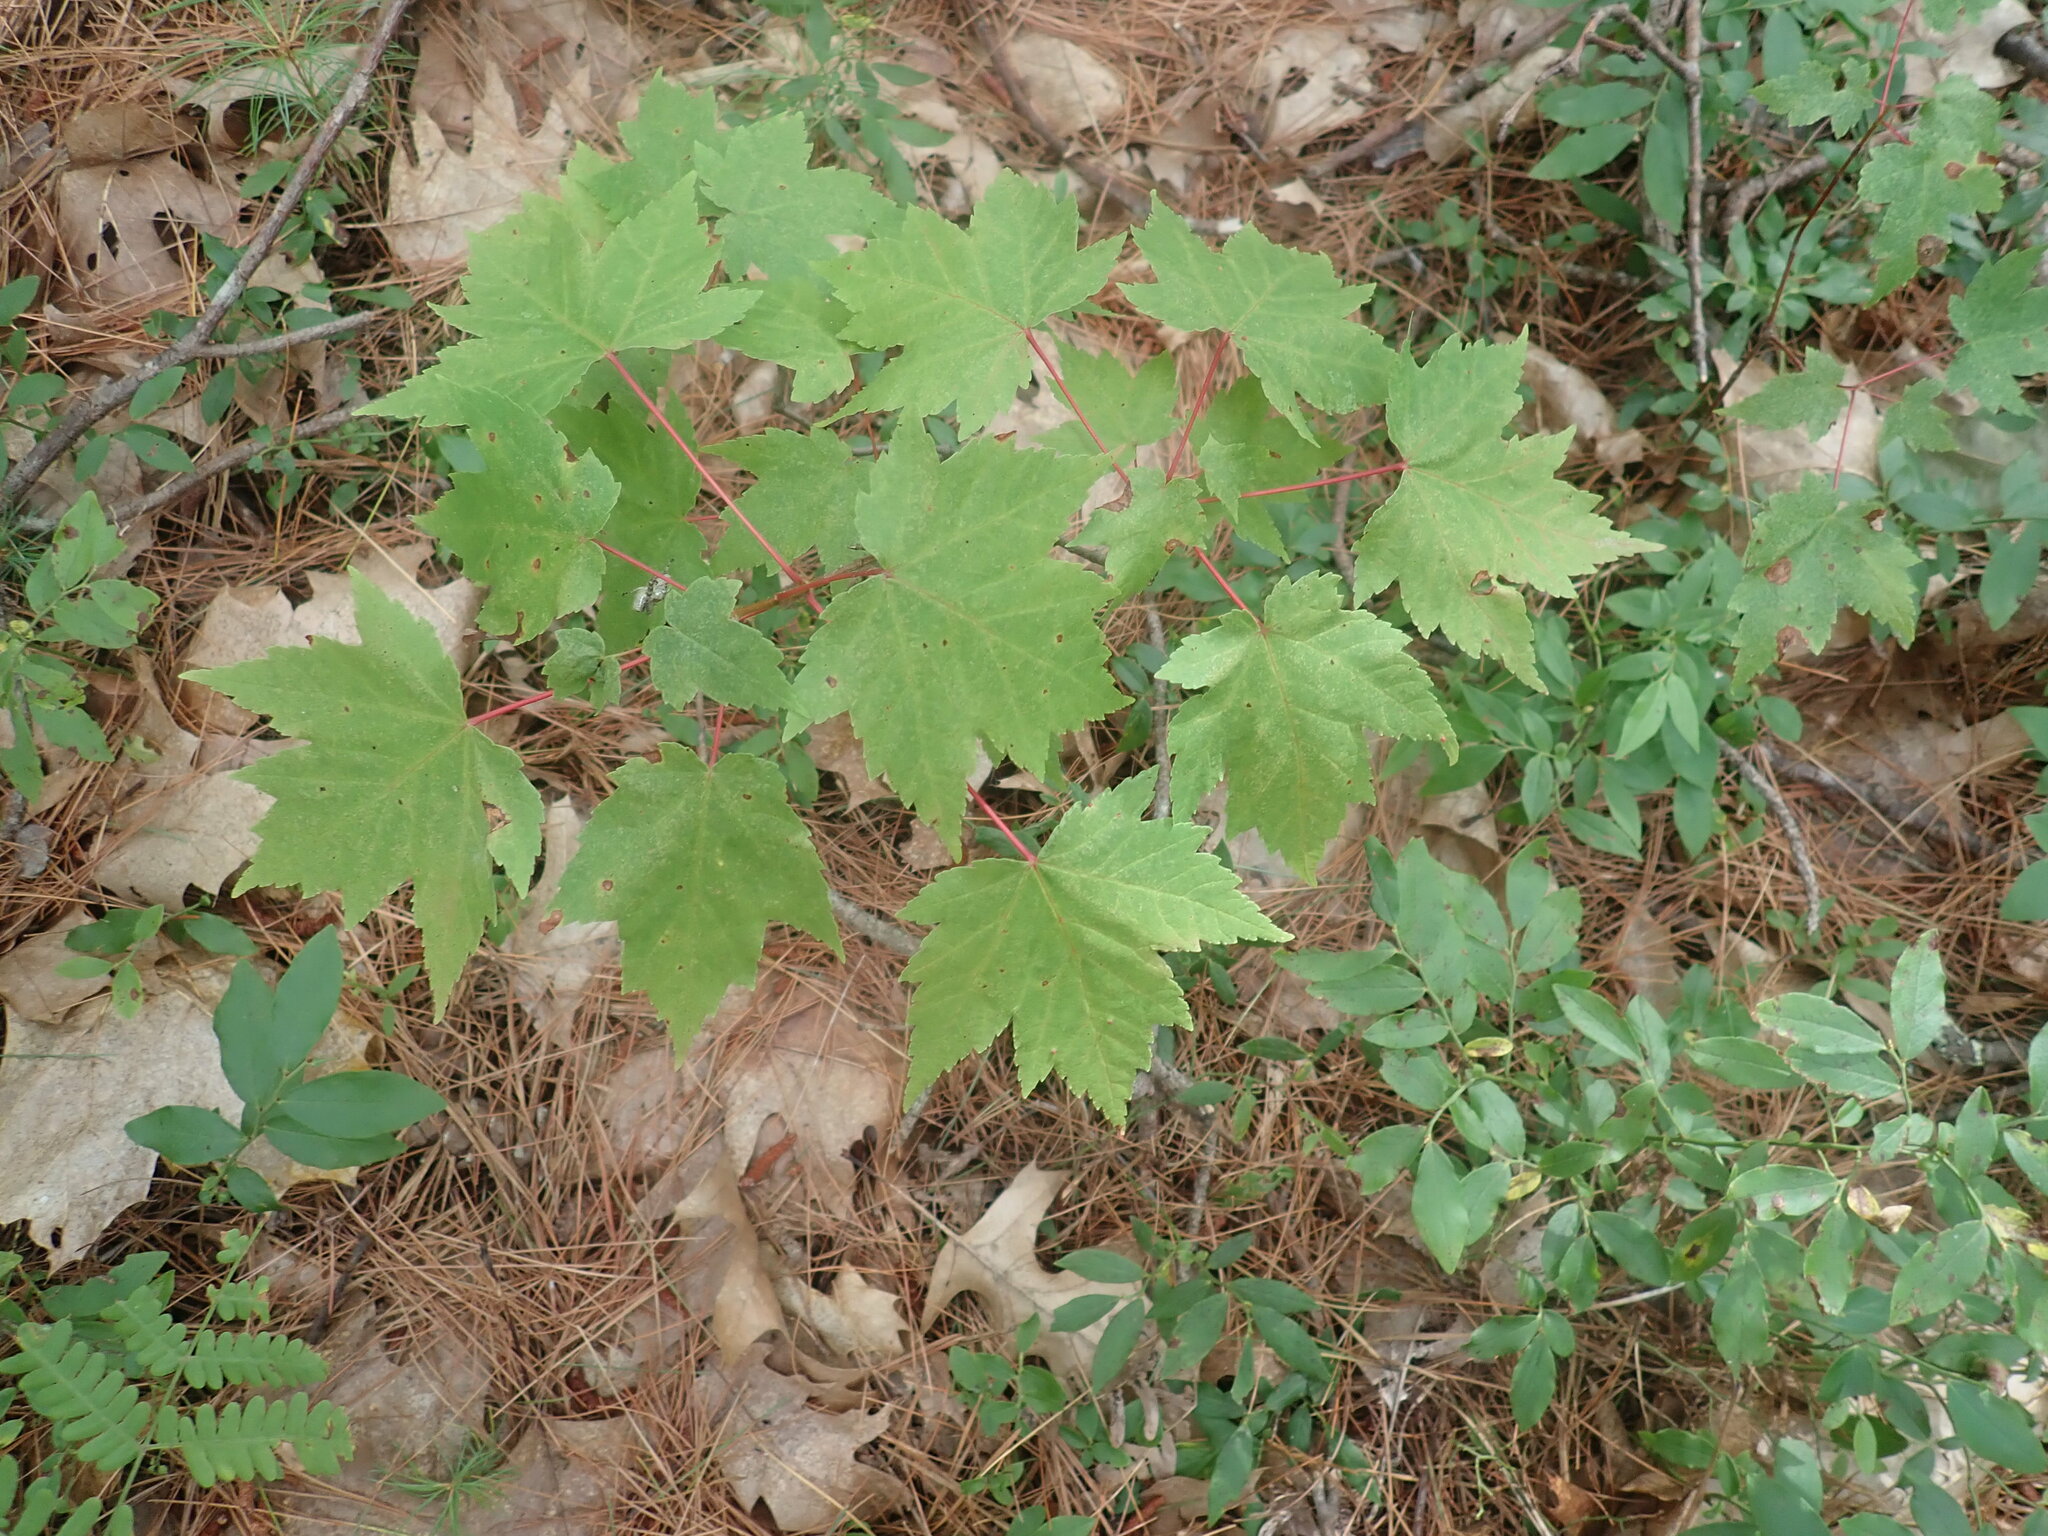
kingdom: Plantae
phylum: Tracheophyta
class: Magnoliopsida
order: Sapindales
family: Sapindaceae
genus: Acer
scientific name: Acer rubrum
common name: Red maple
